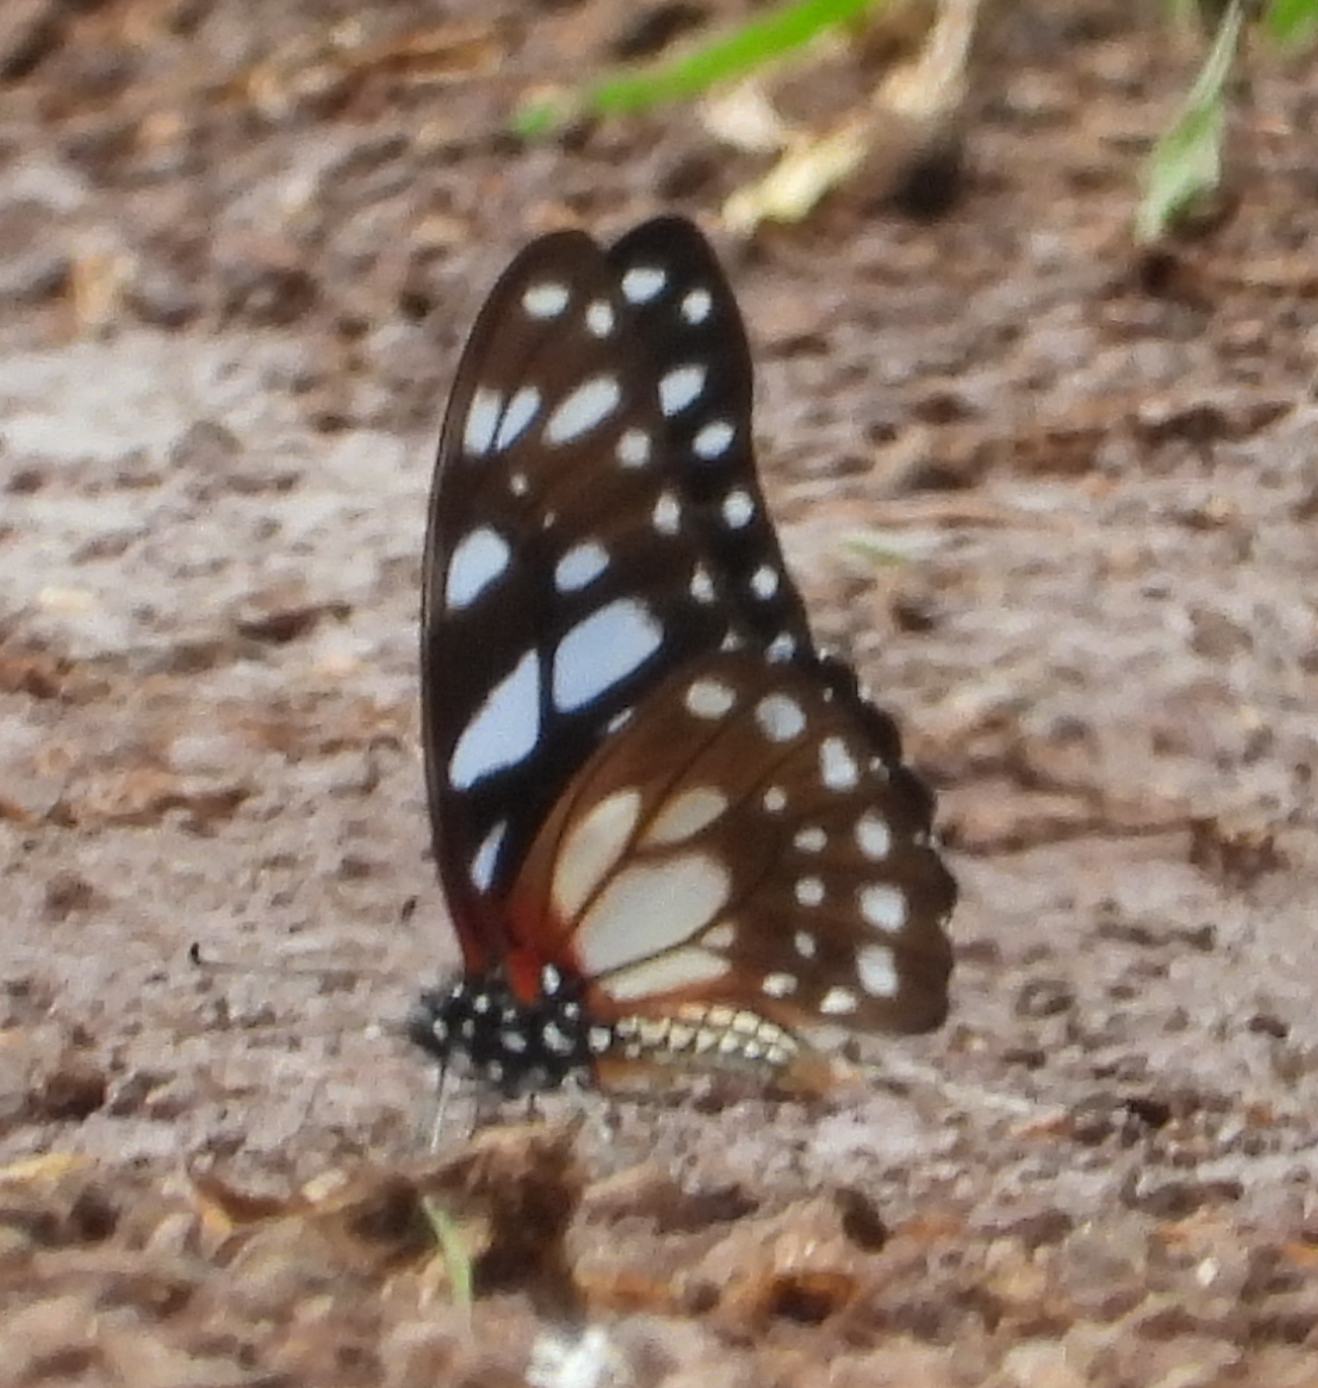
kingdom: Animalia
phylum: Arthropoda
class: Insecta
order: Lepidoptera
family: Papilionidae
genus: Graphium
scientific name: Graphium leonidas
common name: Common graphium
